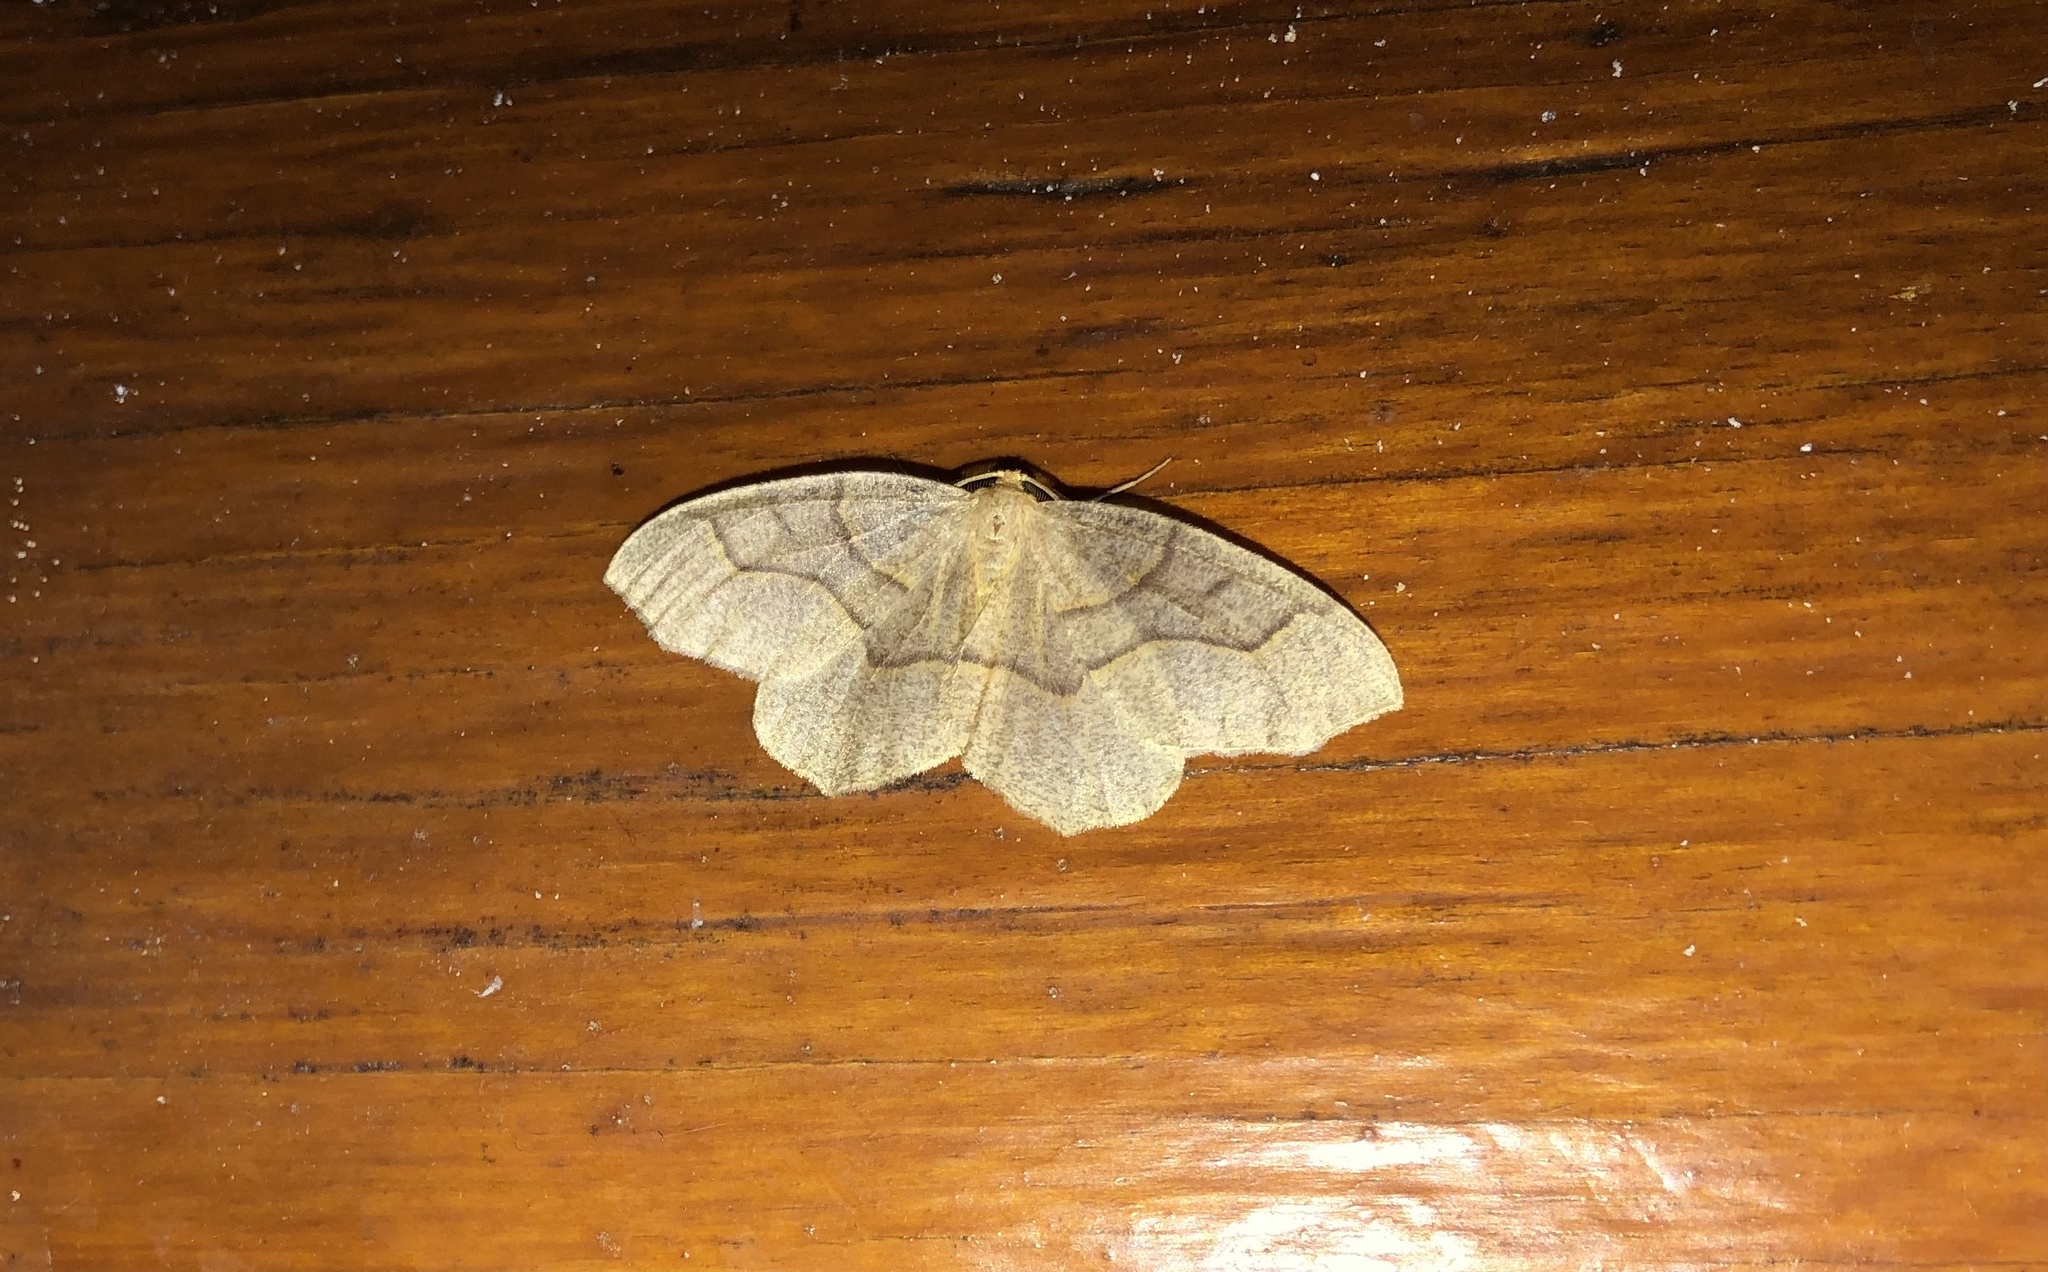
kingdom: Animalia
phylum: Arthropoda
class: Insecta
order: Lepidoptera
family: Geometridae
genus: Lambdina
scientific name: Lambdina fiscellaria
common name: Hemlock looper
